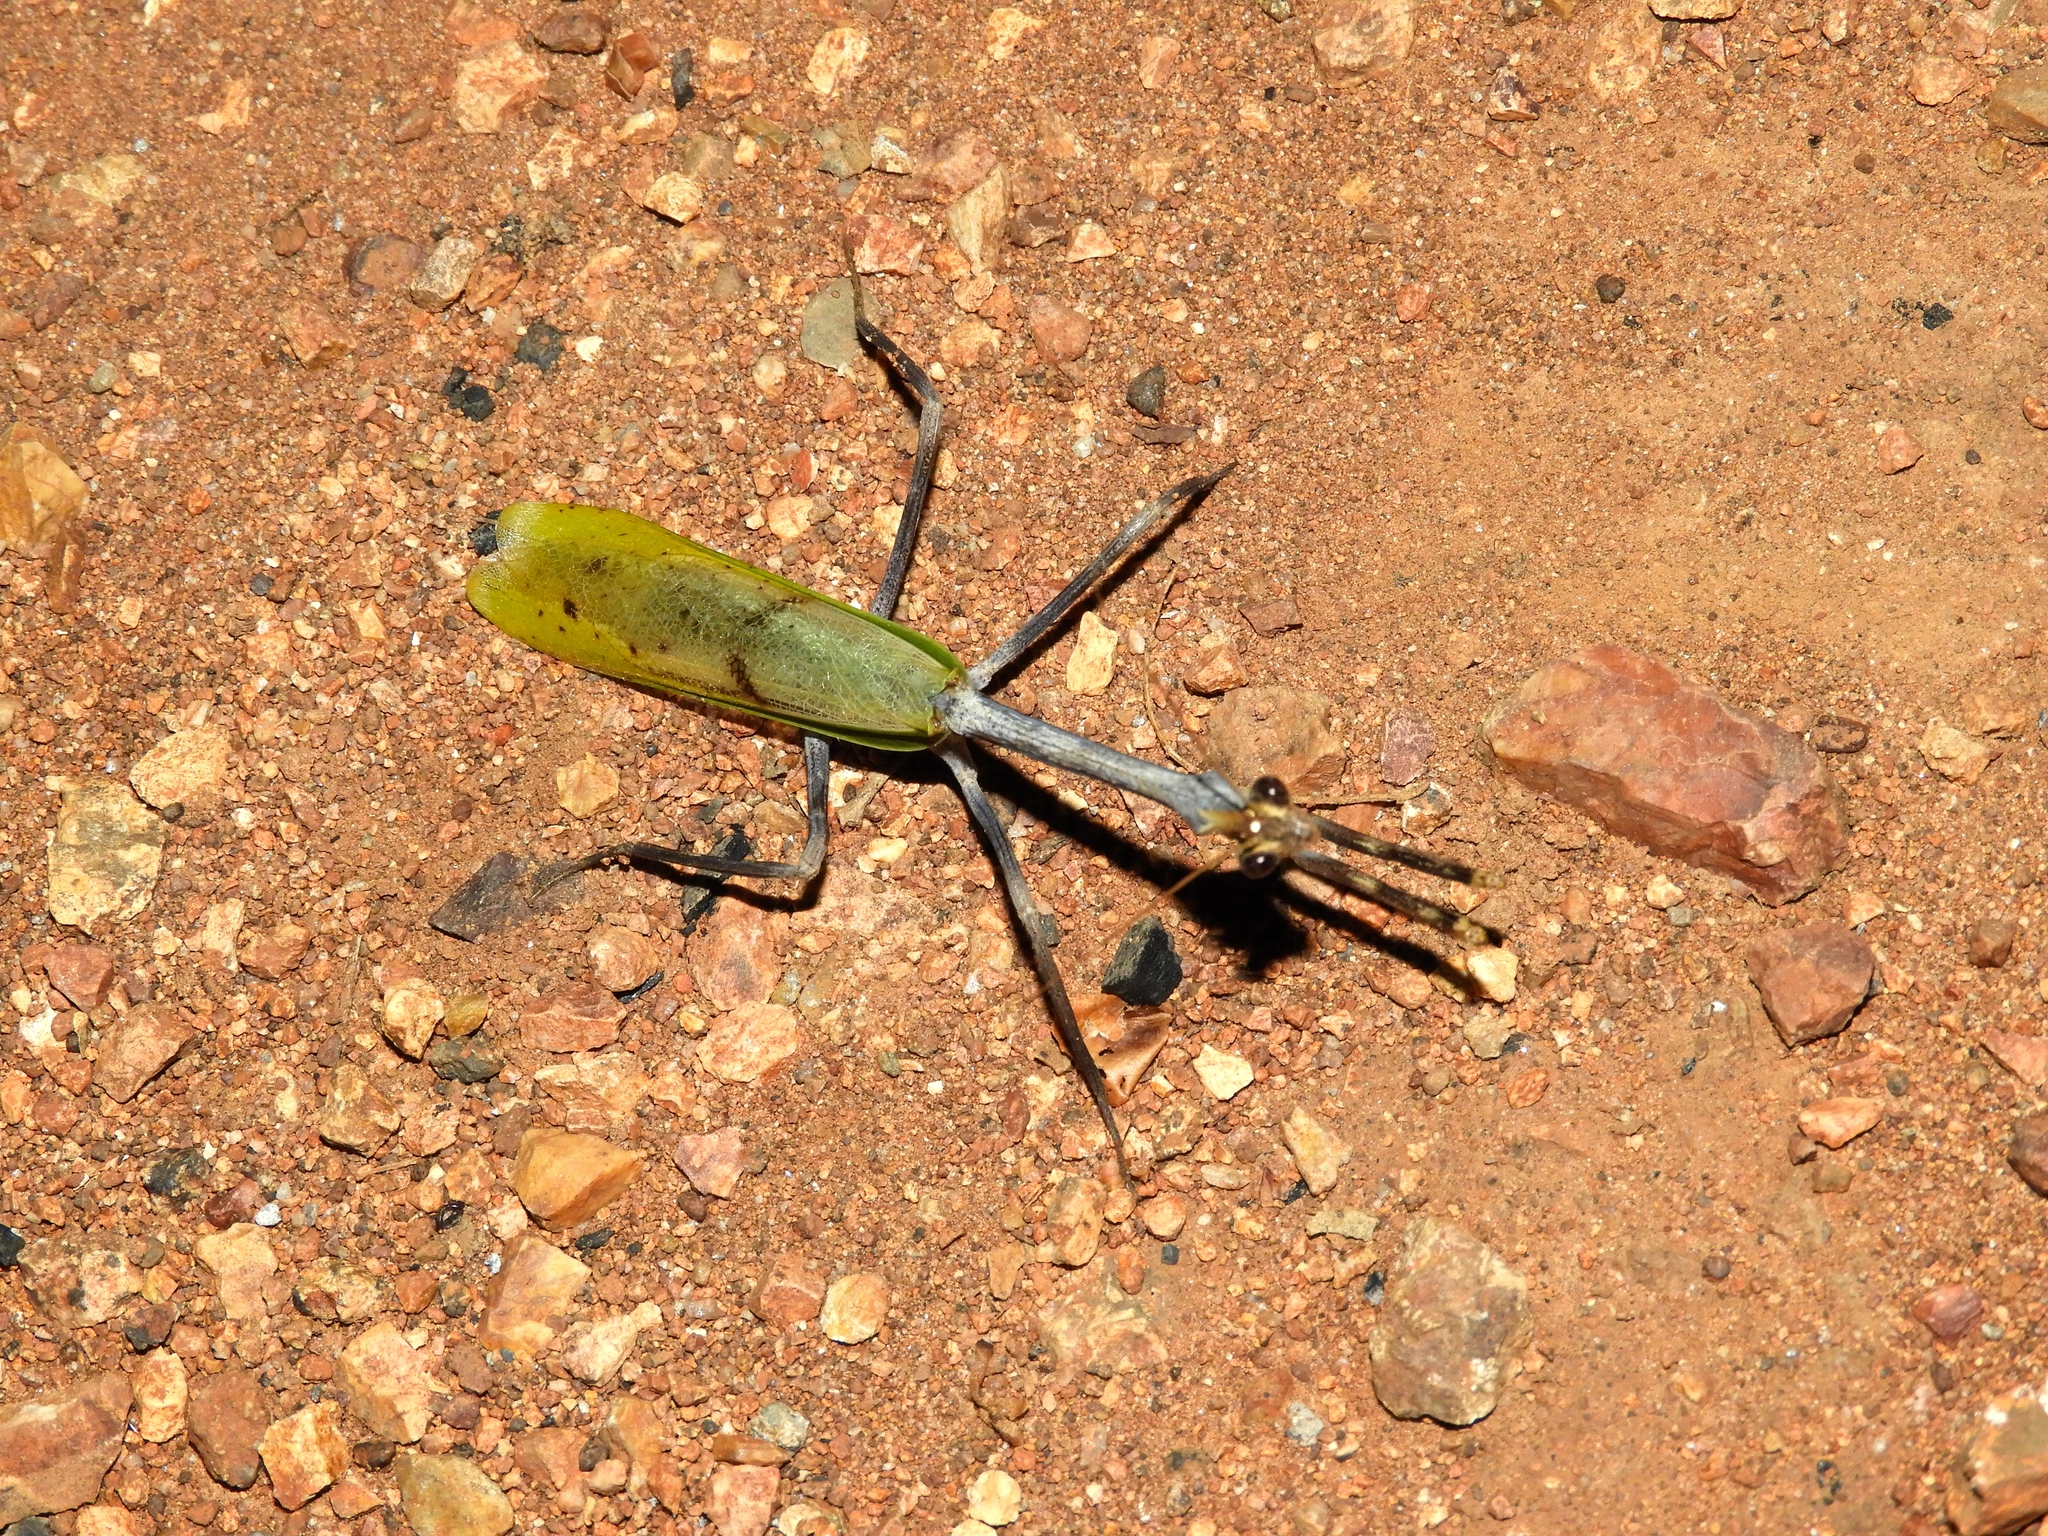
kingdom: Animalia
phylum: Arthropoda
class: Insecta
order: Mantodea
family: Mantidae
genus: Pseudovates
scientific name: Pseudovates
